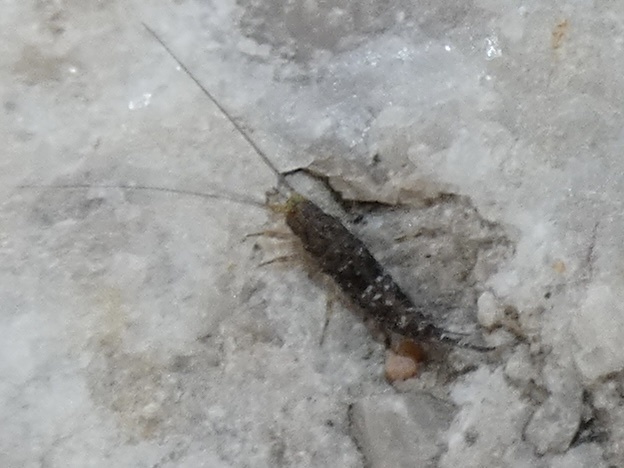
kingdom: Animalia
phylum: Arthropoda
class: Insecta
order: Archaeognatha
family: Machilidae
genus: Petrobius
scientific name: Petrobius maritimus
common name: Sea bristletail
